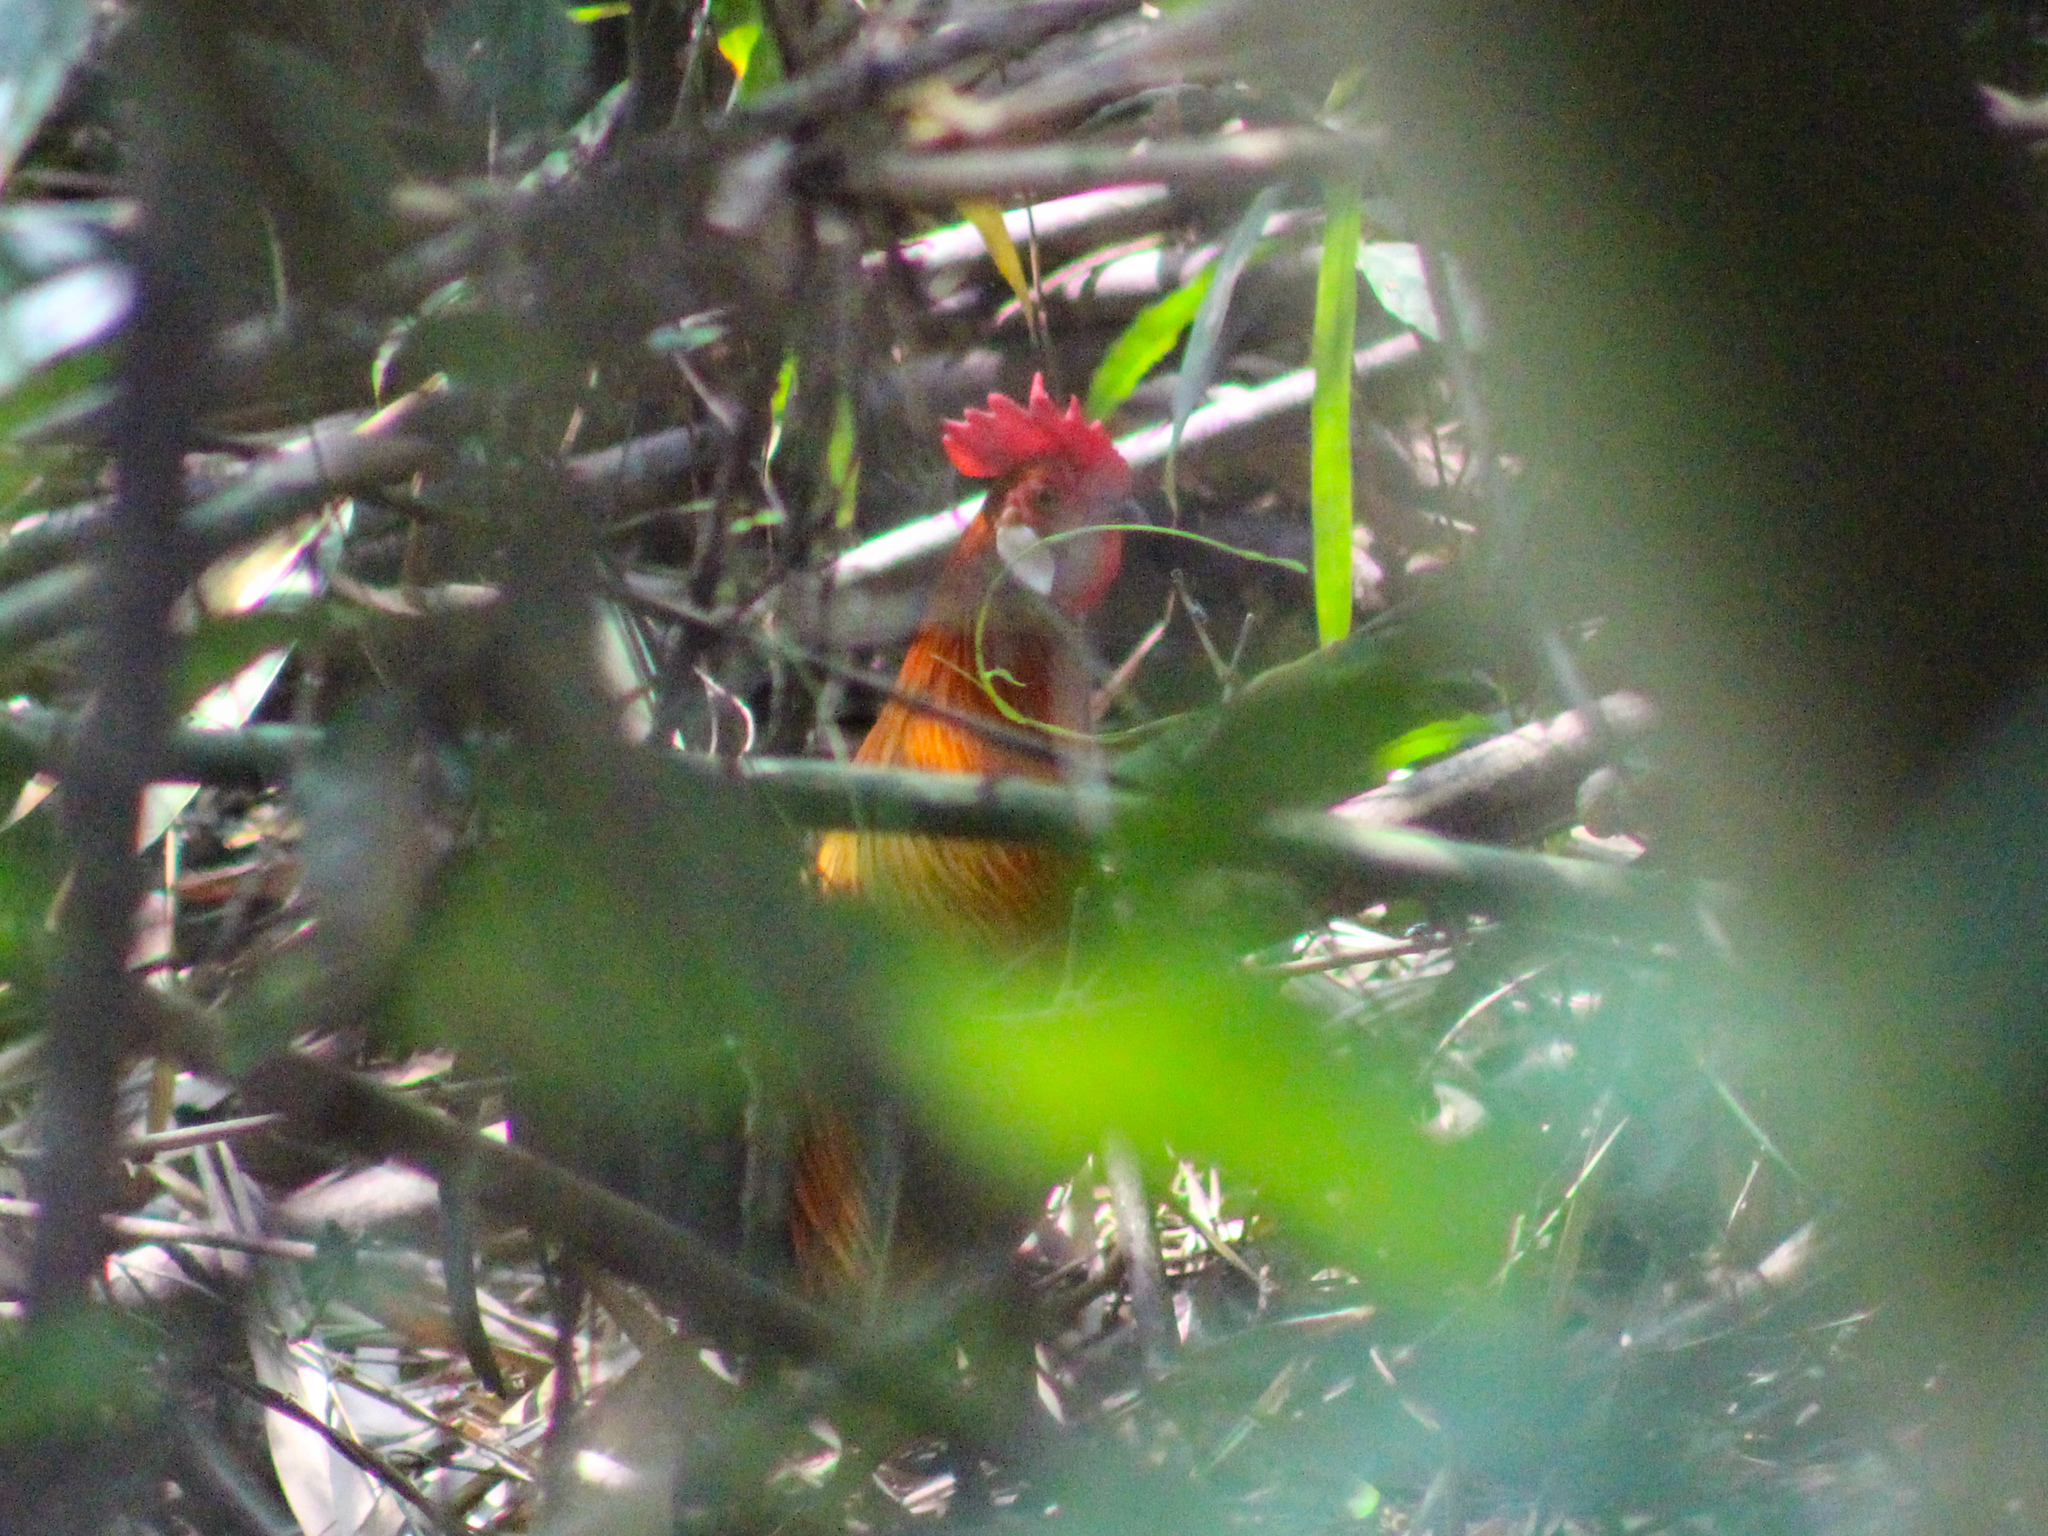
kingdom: Animalia
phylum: Chordata
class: Aves
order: Galliformes
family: Phasianidae
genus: Gallus
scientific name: Gallus gallus
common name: Red junglefowl
